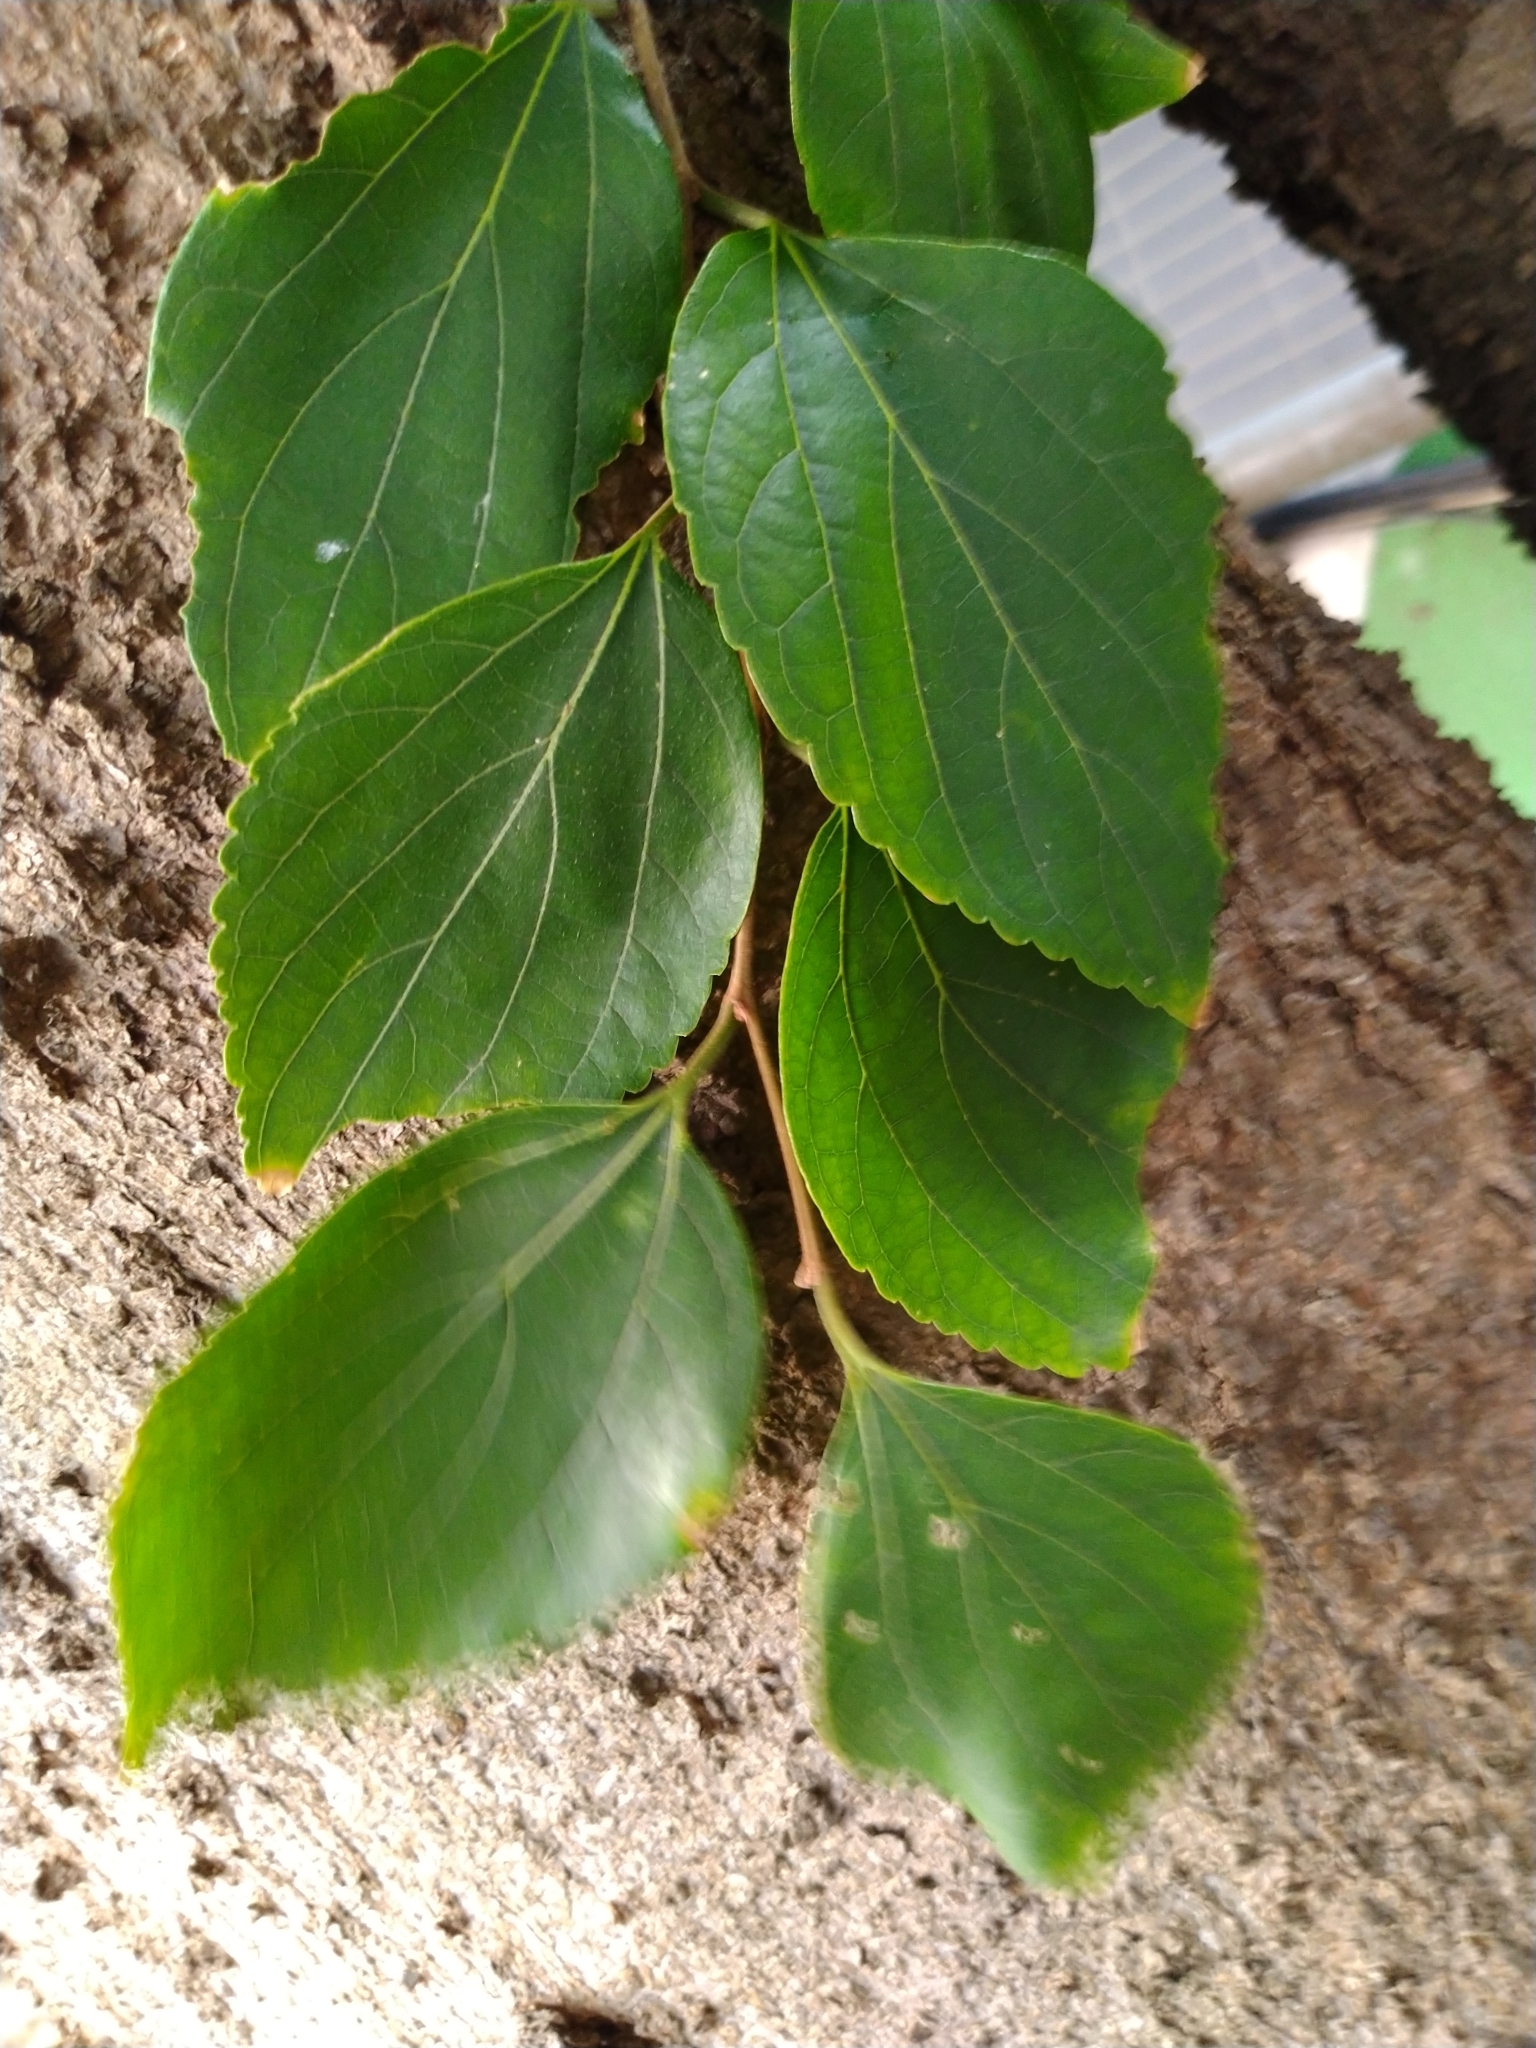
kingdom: Plantae
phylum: Tracheophyta
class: Magnoliopsida
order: Rosales
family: Cannabaceae
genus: Celtis
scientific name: Celtis sinensis
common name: Chinese hackberry
